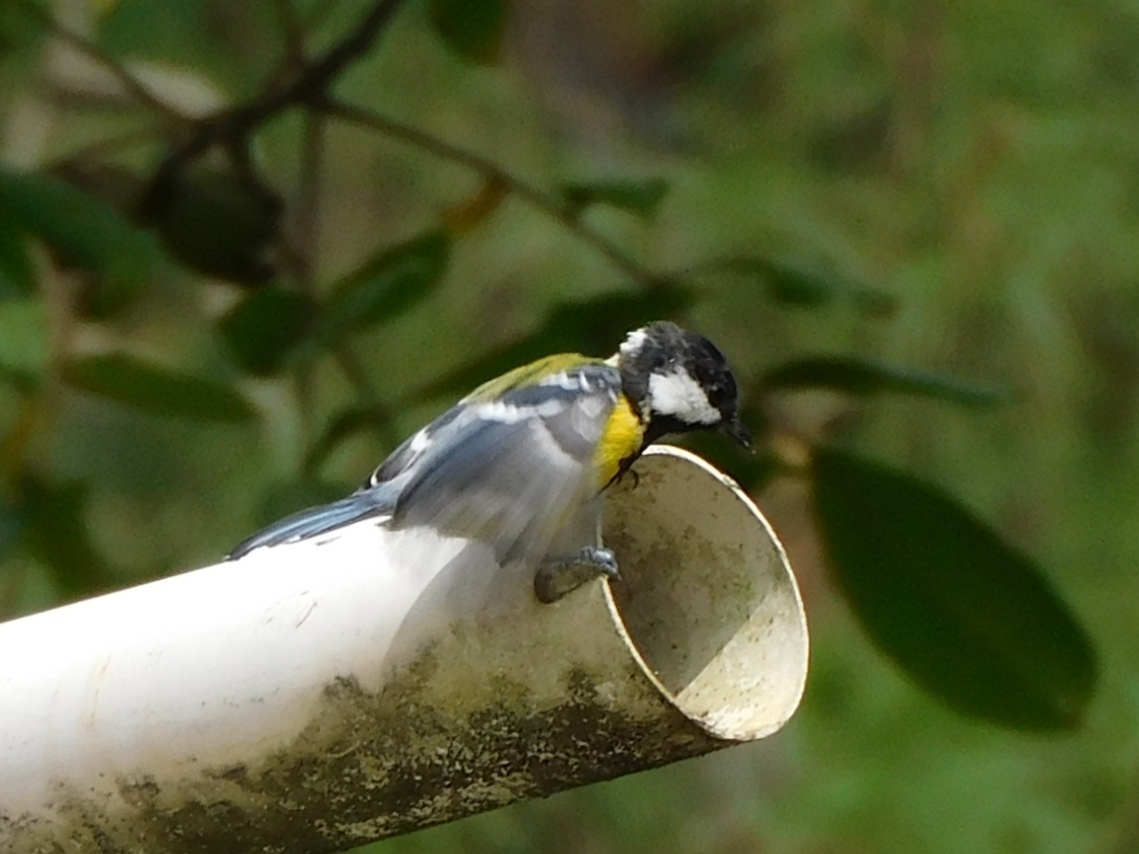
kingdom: Animalia
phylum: Chordata
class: Aves
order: Passeriformes
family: Paridae
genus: Parus
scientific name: Parus monticolus
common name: Green-backed tit
